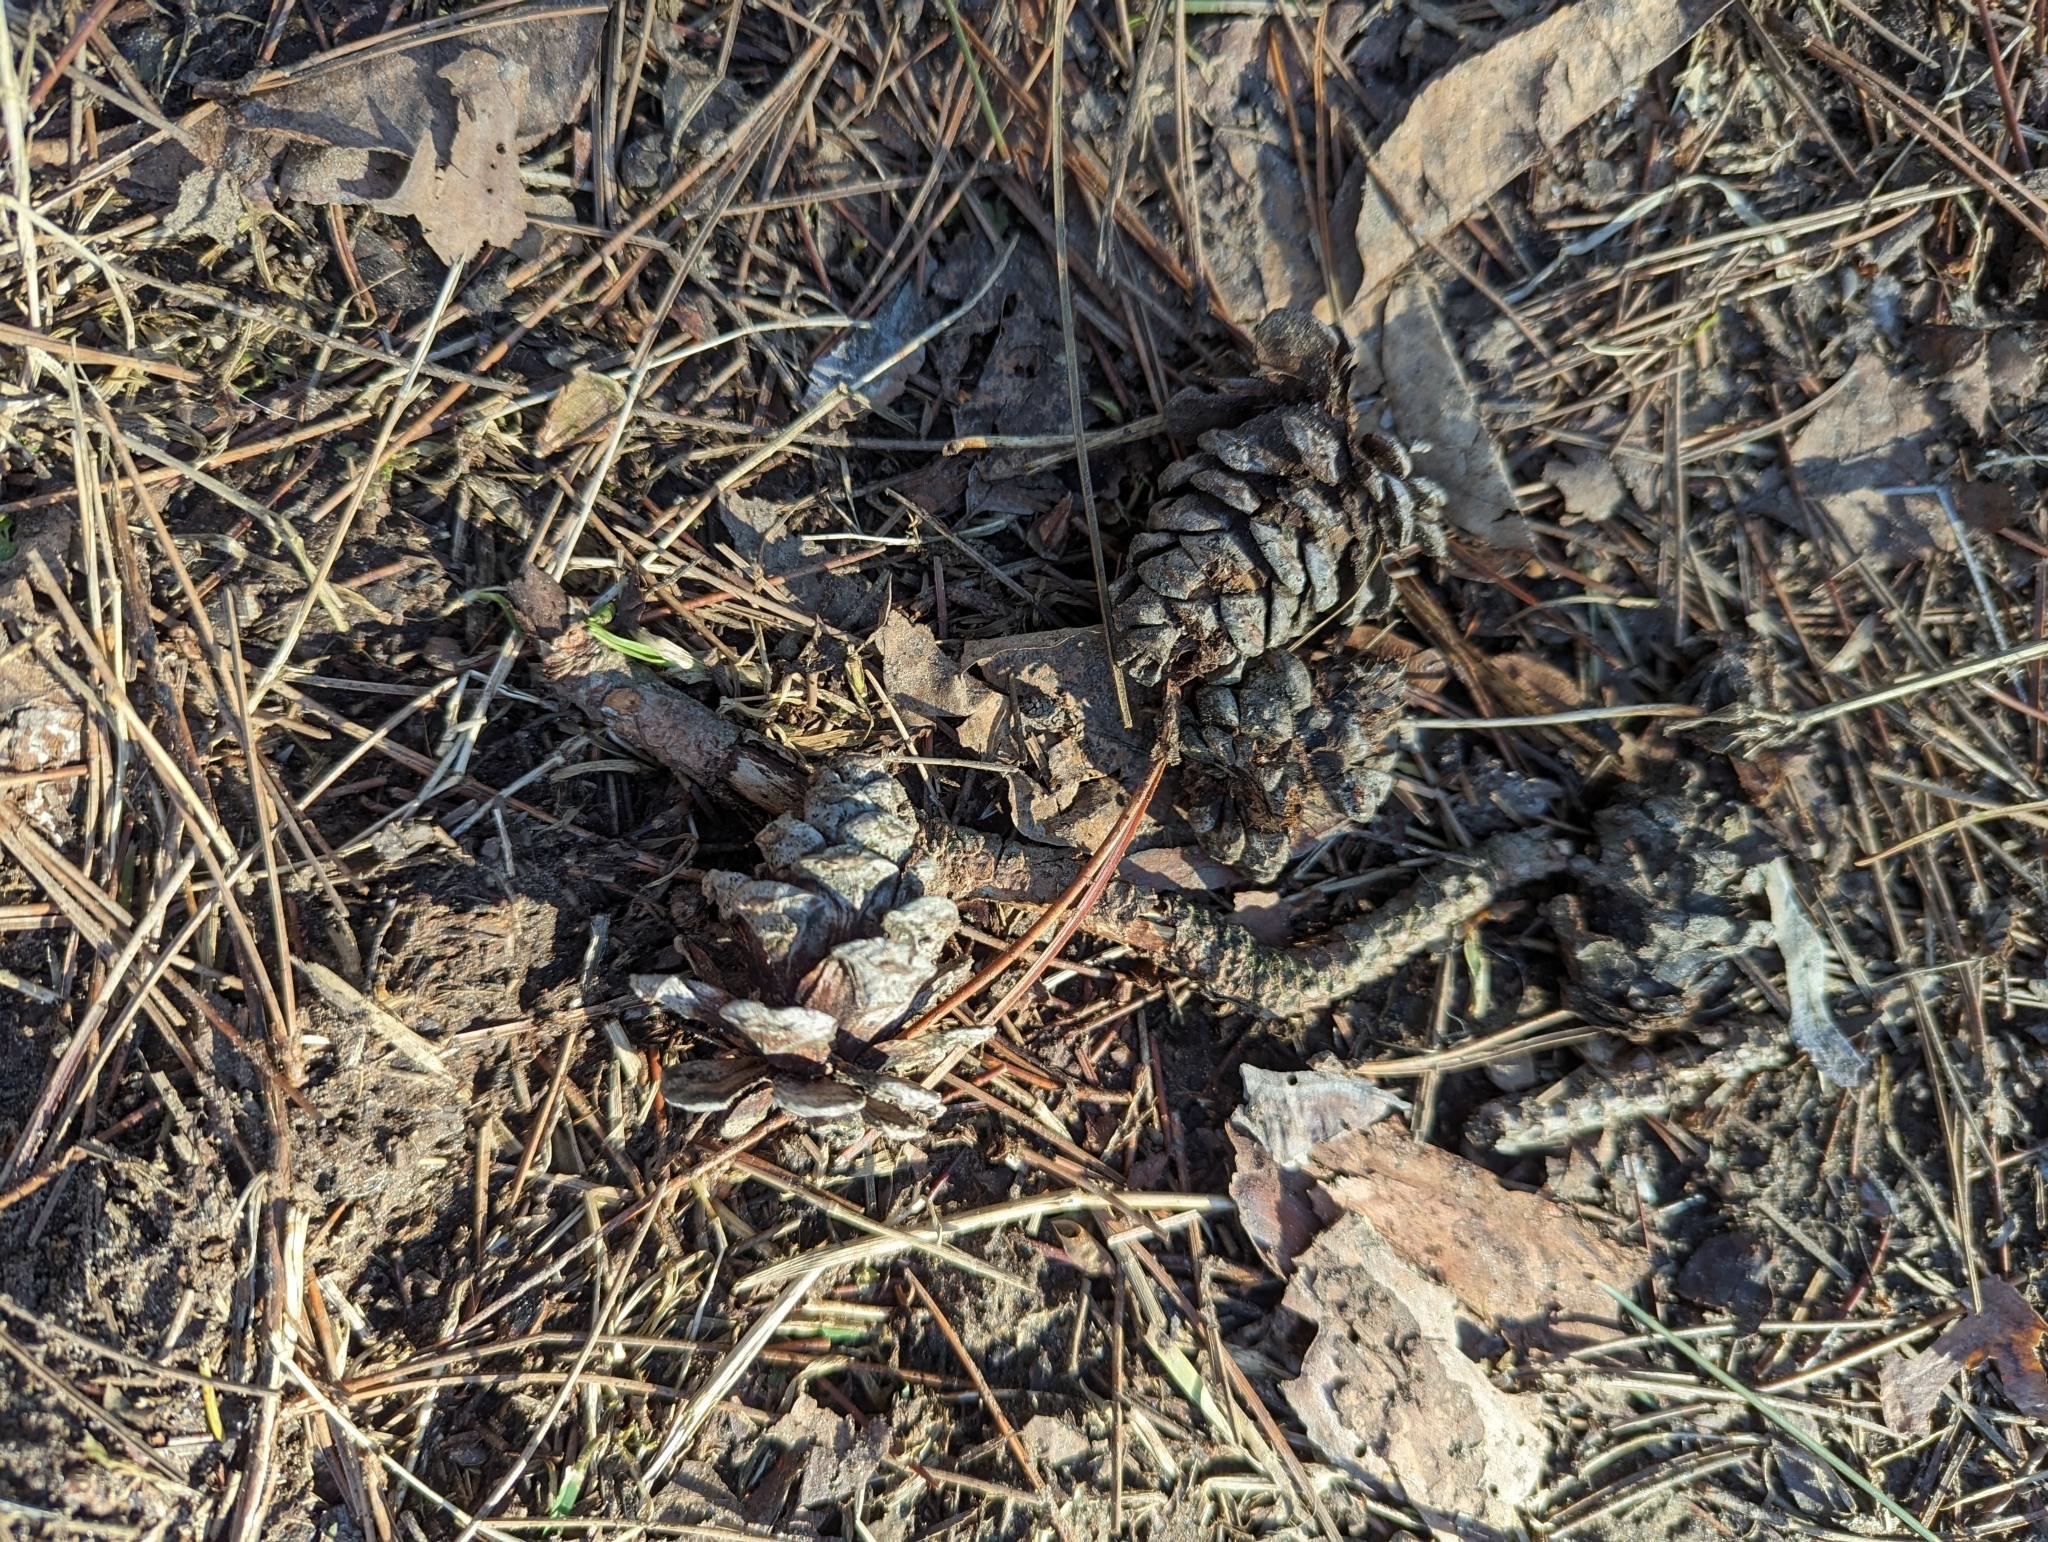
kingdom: Plantae
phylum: Tracheophyta
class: Pinopsida
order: Pinales
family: Pinaceae
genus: Pinus
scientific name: Pinus resinosa
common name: Norway pine
